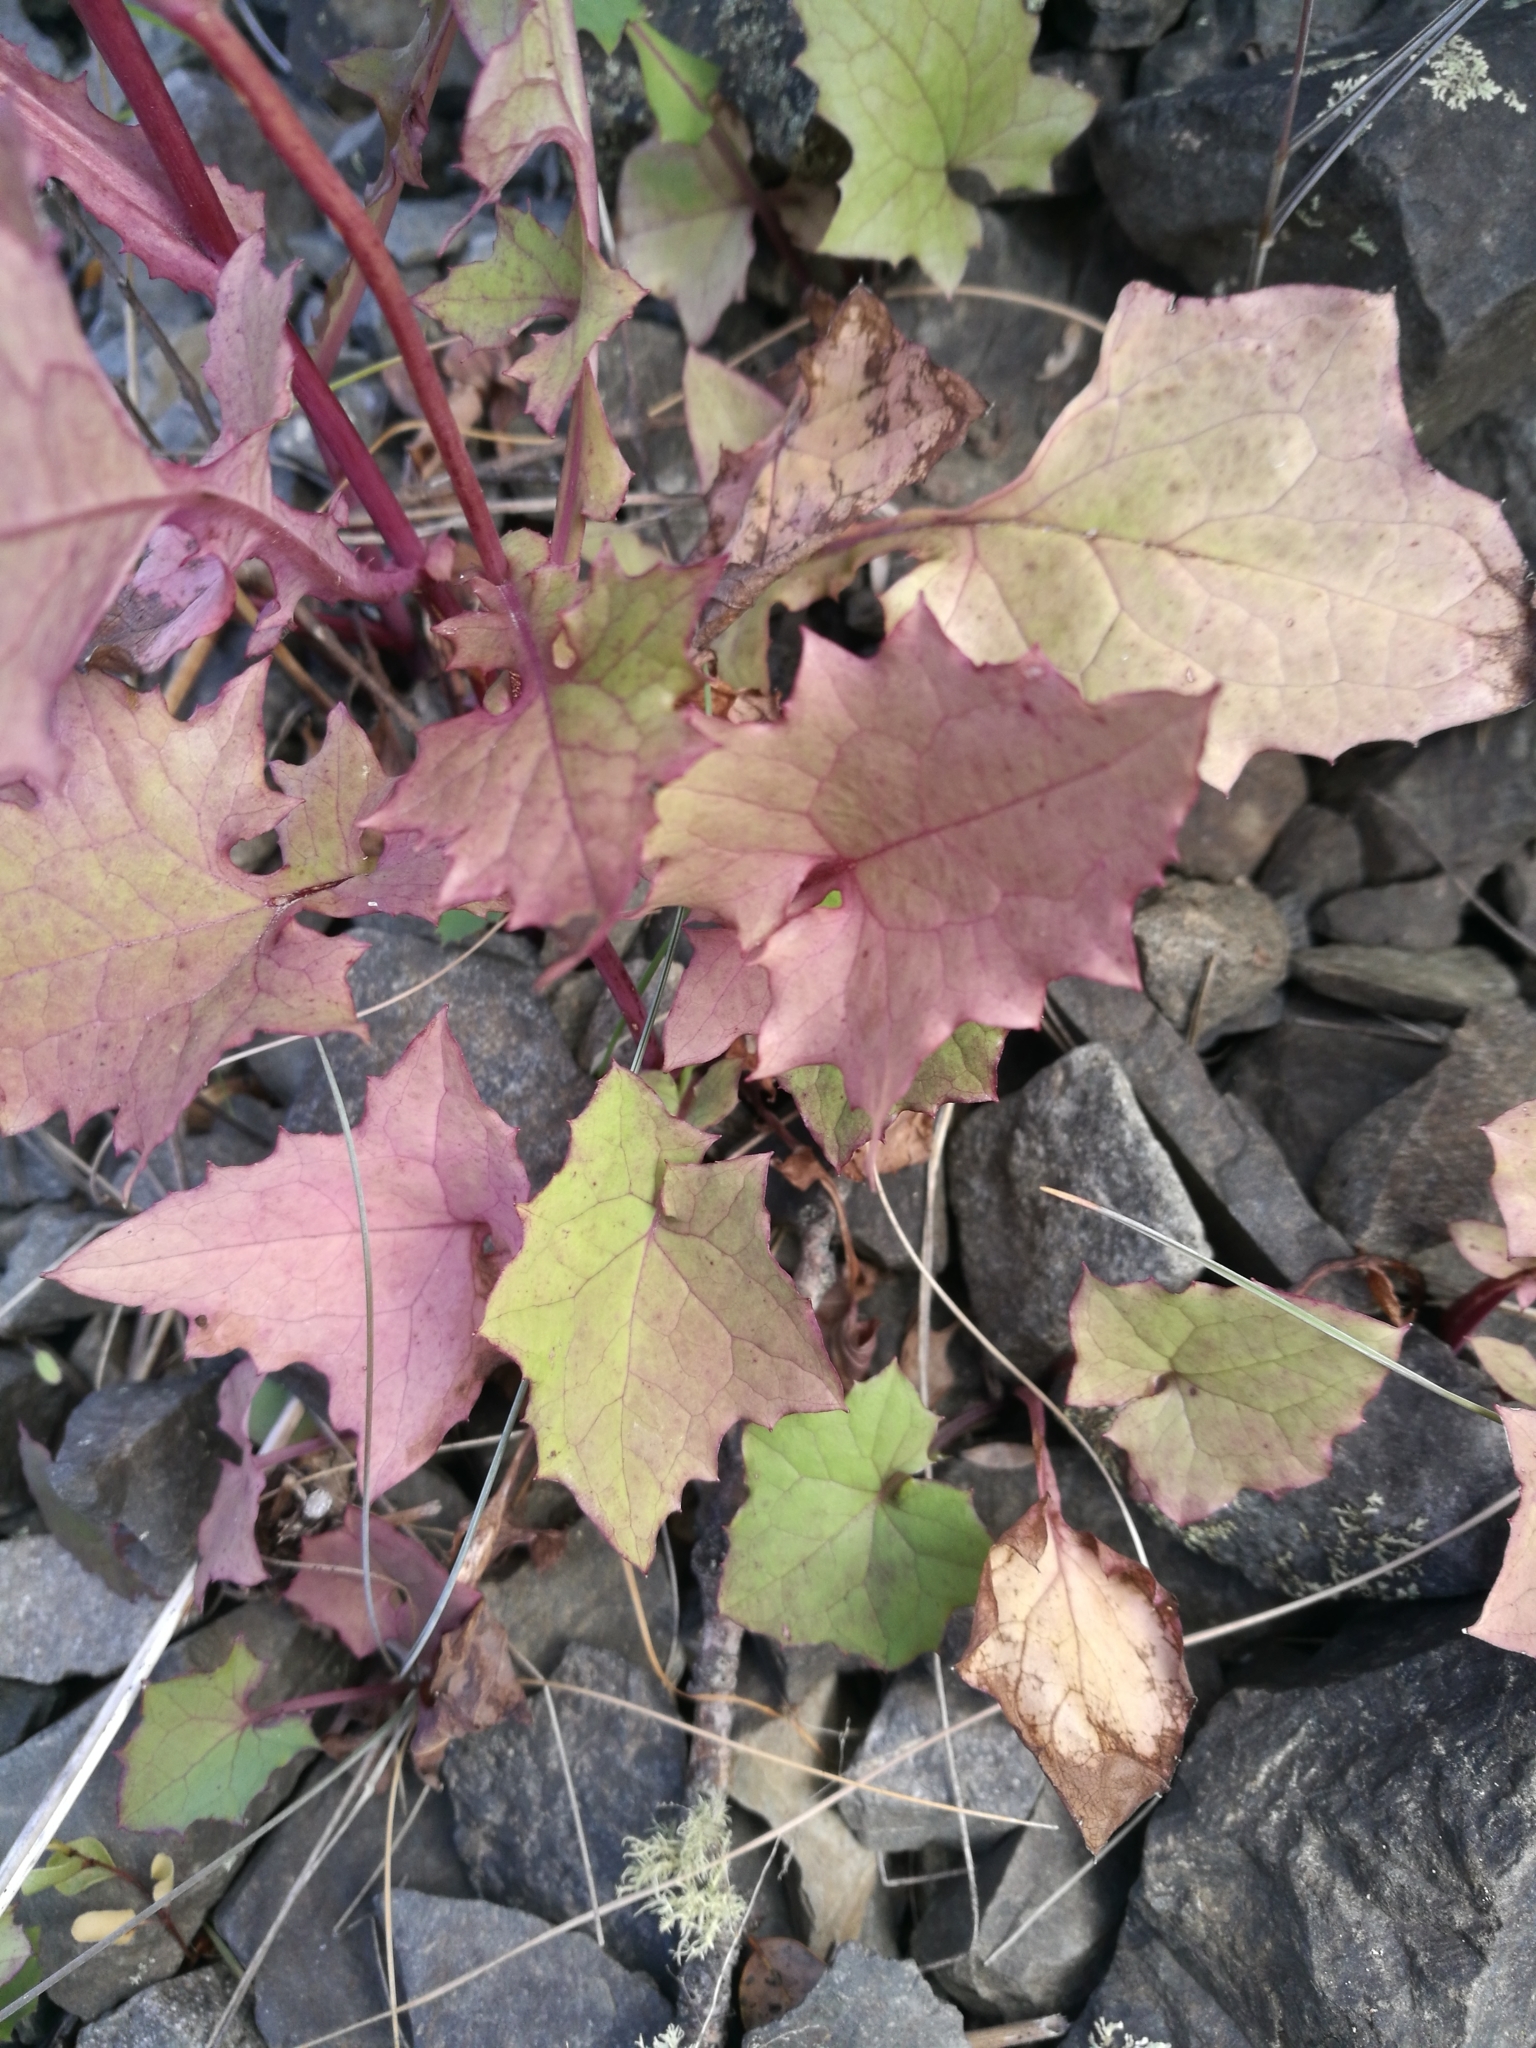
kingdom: Plantae
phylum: Tracheophyta
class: Magnoliopsida
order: Asterales
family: Asteraceae
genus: Mycelis
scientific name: Mycelis muralis
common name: Wall lettuce
